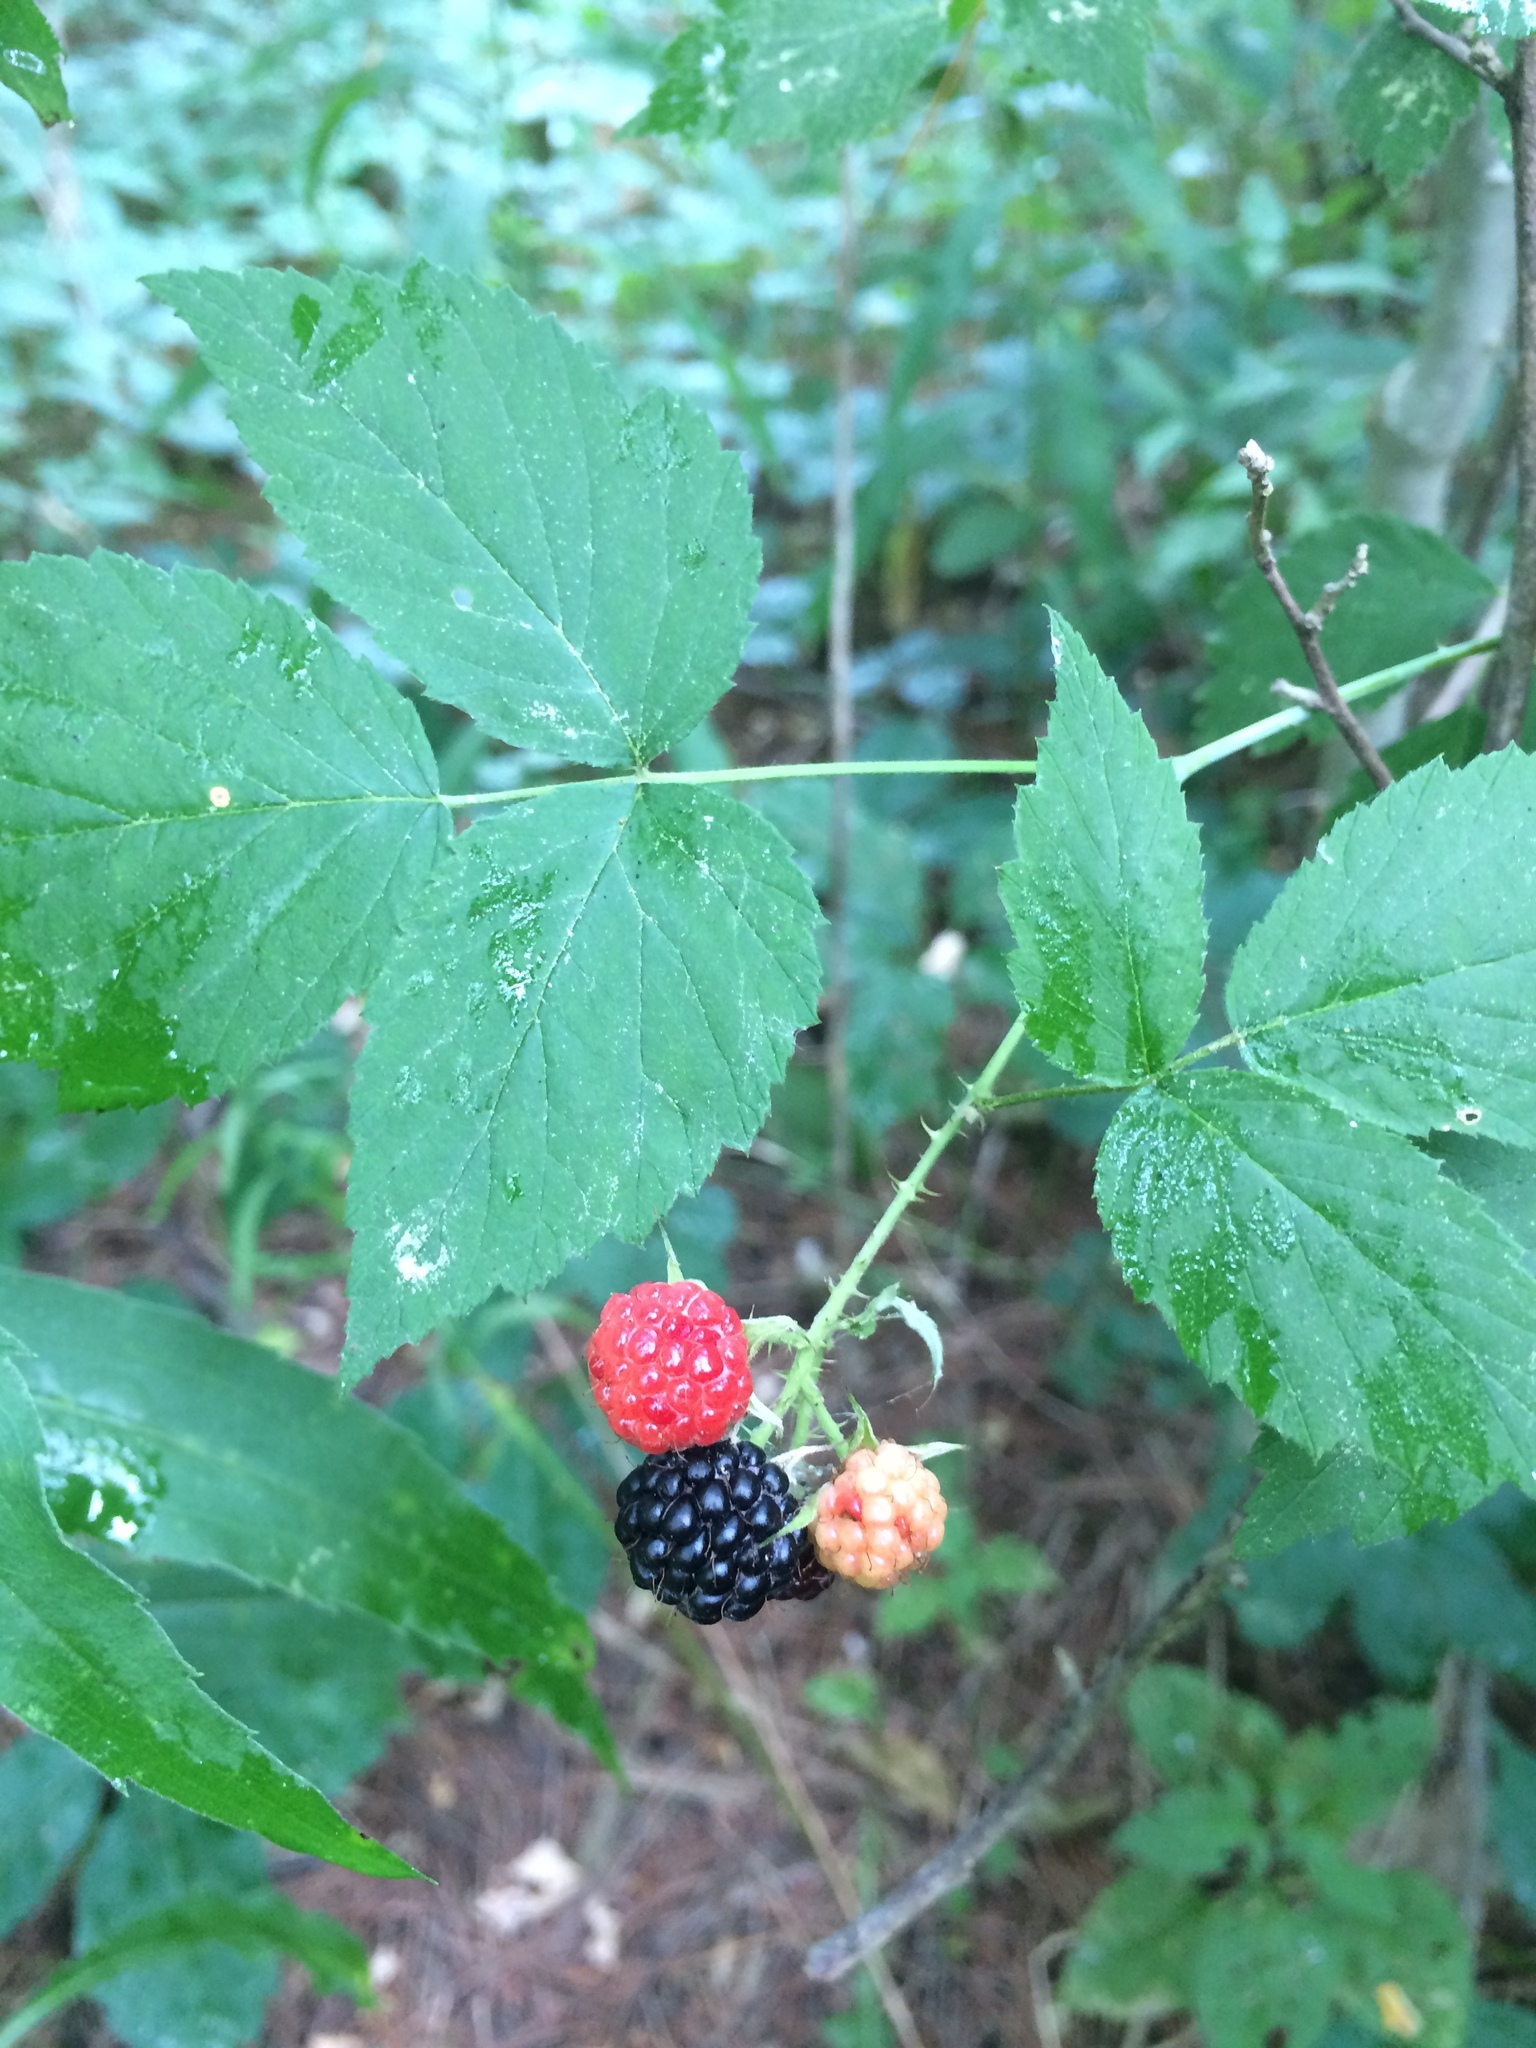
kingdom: Plantae
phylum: Tracheophyta
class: Magnoliopsida
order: Rosales
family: Rosaceae
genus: Rubus
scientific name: Rubus occidentalis
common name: Black raspberry
